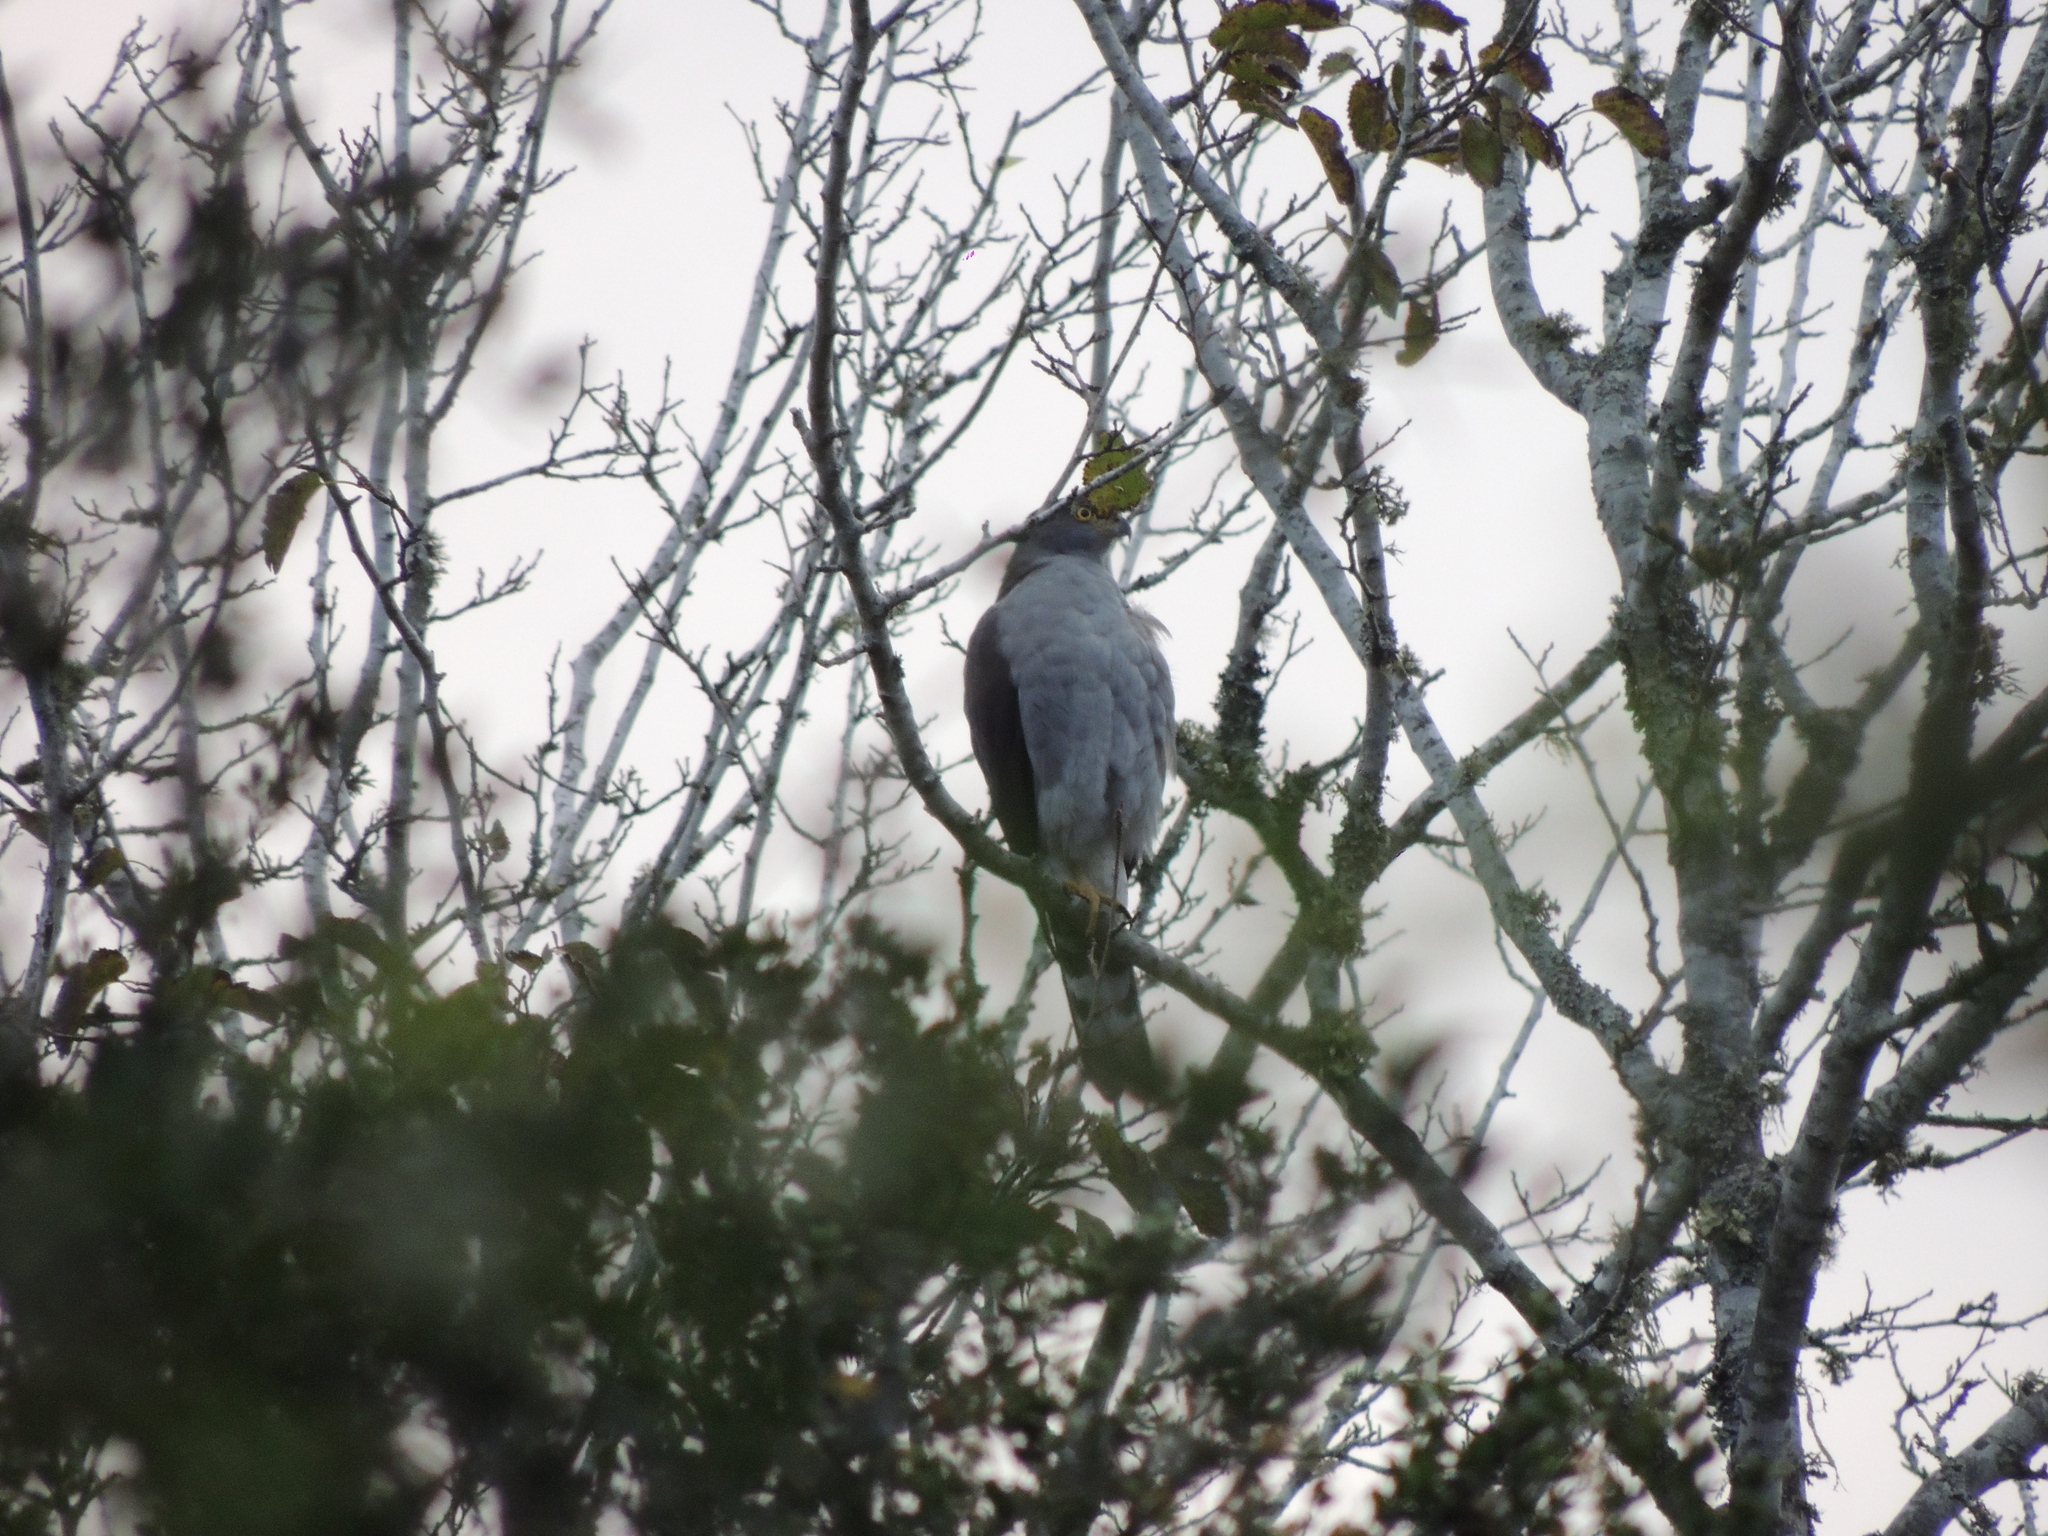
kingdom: Animalia
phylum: Chordata
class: Aves
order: Accipitriformes
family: Accipitridae
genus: Accipiter
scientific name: Accipiter bicolor
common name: Bicolored hawk
